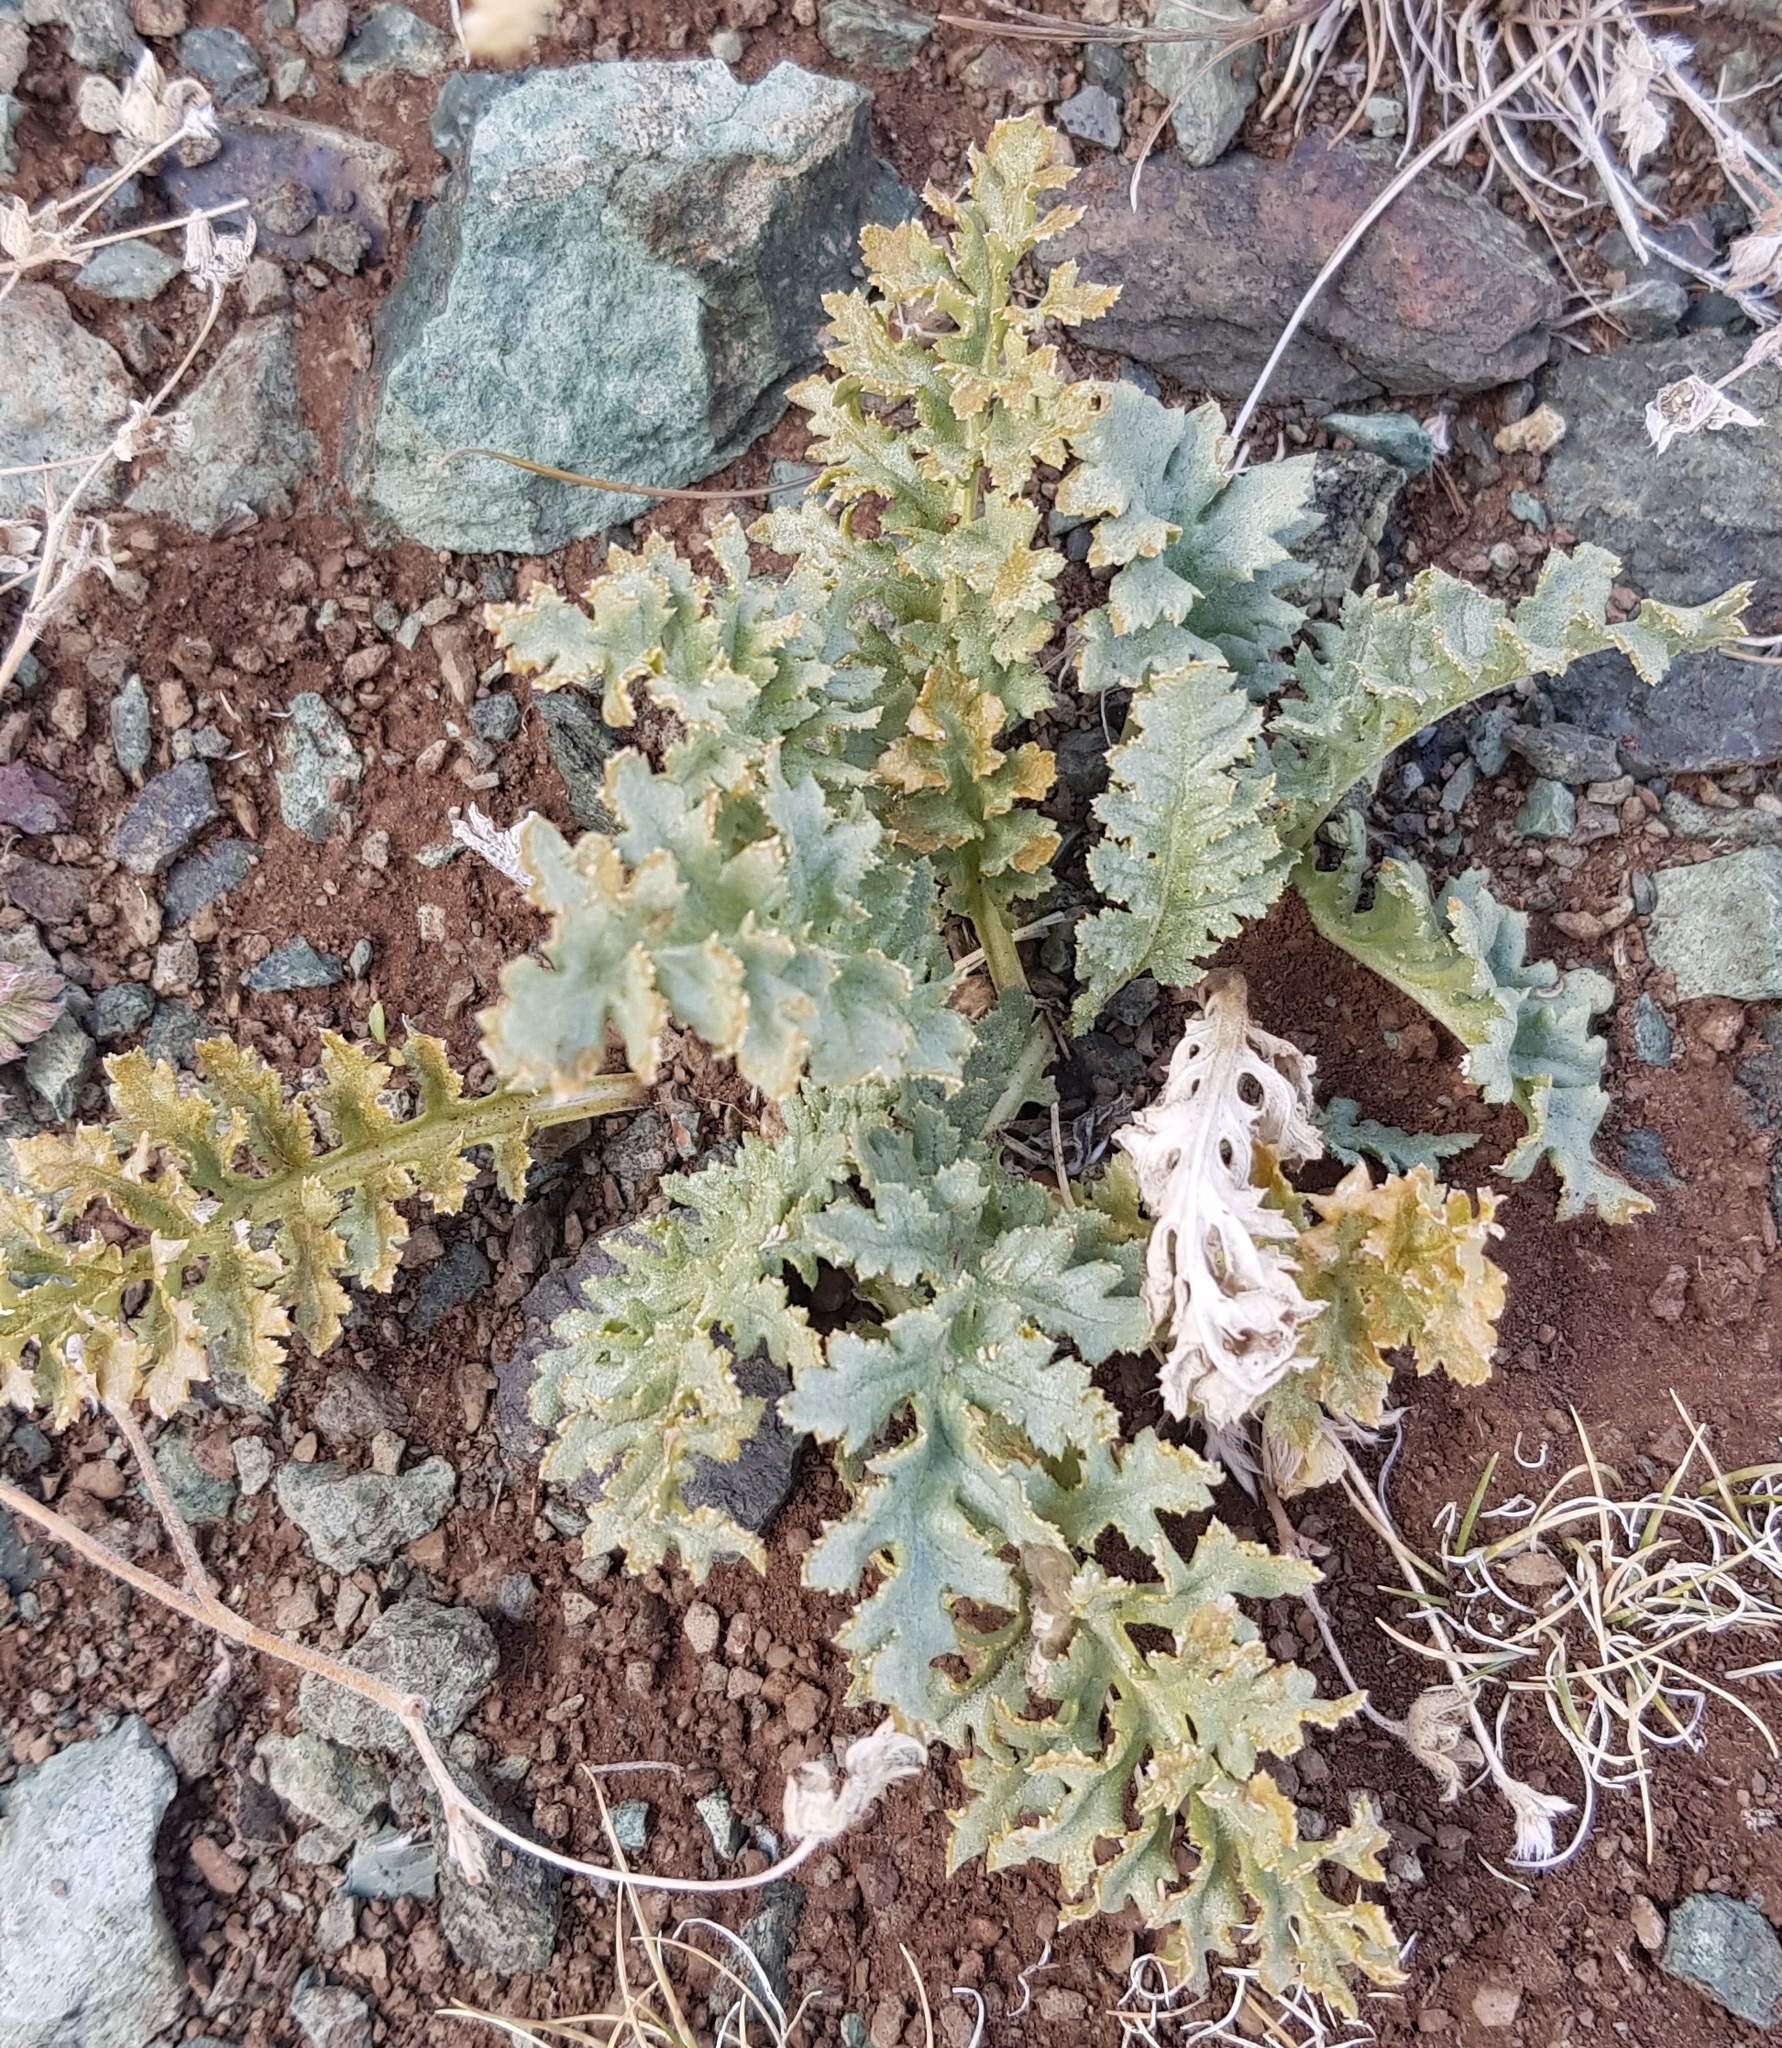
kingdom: Plantae
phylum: Tracheophyta
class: Magnoliopsida
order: Lamiales
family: Orobanchaceae
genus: Pedicularis
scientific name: Pedicularis anthemifolia
